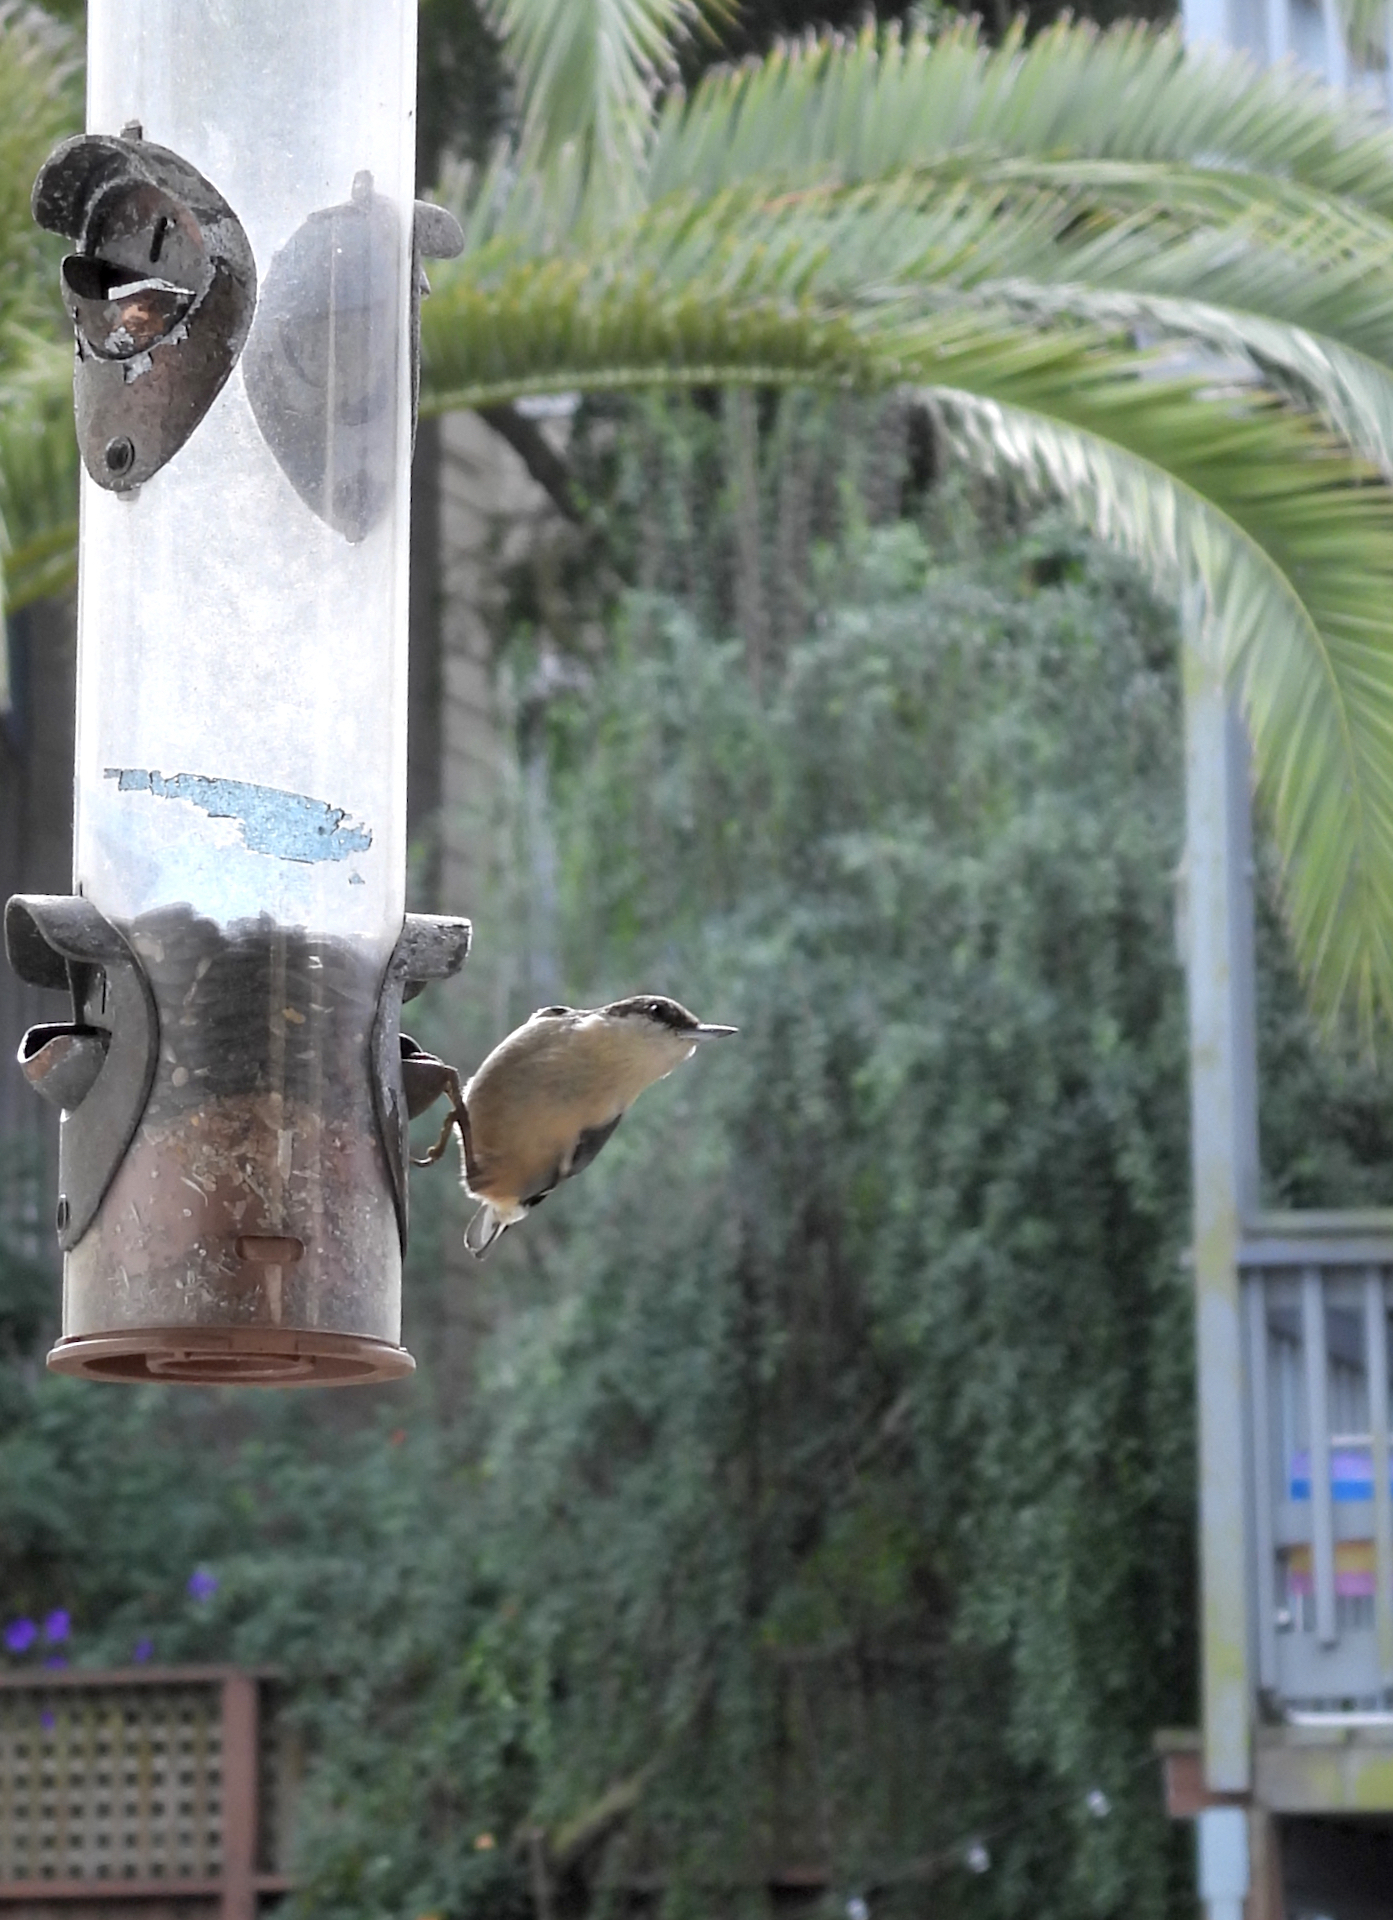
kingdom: Animalia
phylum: Chordata
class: Aves
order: Passeriformes
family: Sittidae
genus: Sitta
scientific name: Sitta pygmaea
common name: Pygmy nuthatch
